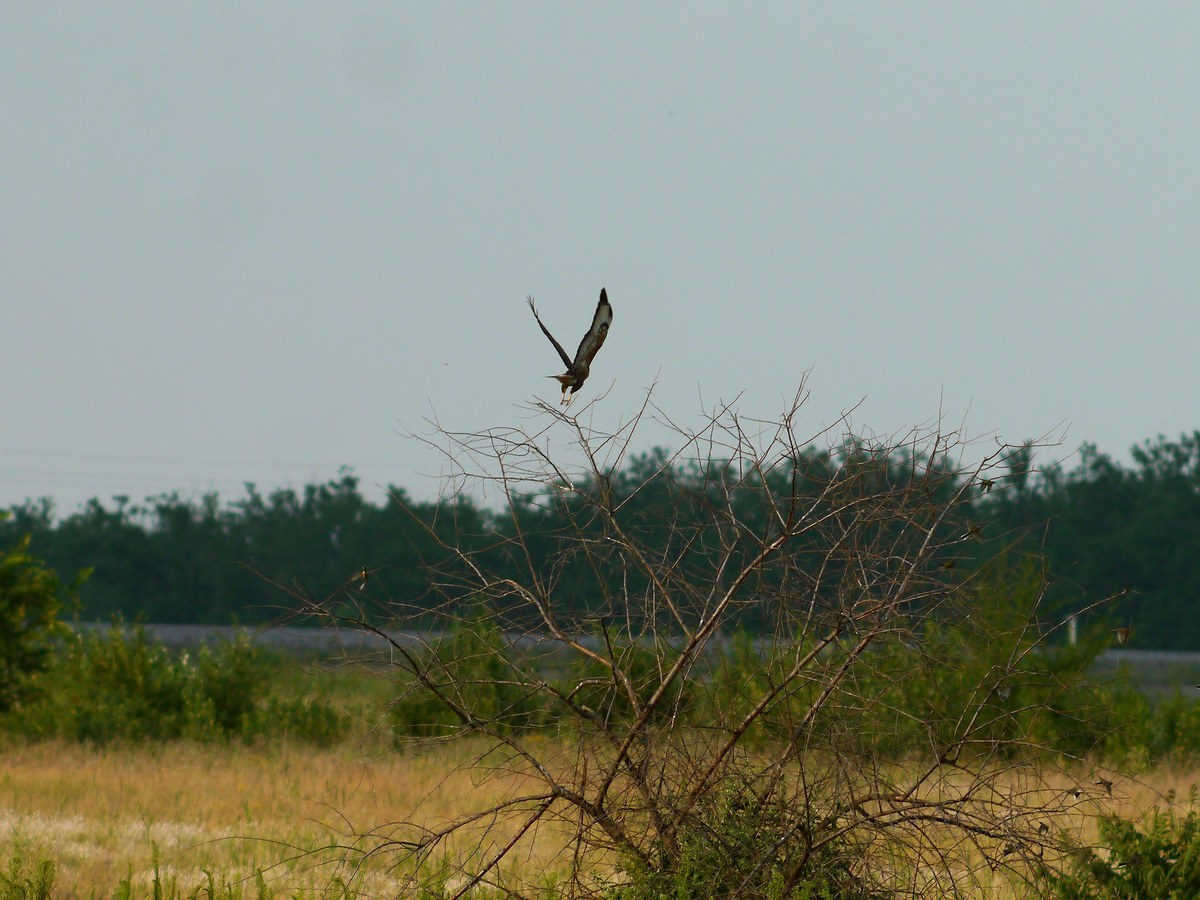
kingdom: Animalia
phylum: Chordata
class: Aves
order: Accipitriformes
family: Accipitridae
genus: Buteo
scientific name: Buteo buteo
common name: Common buzzard
